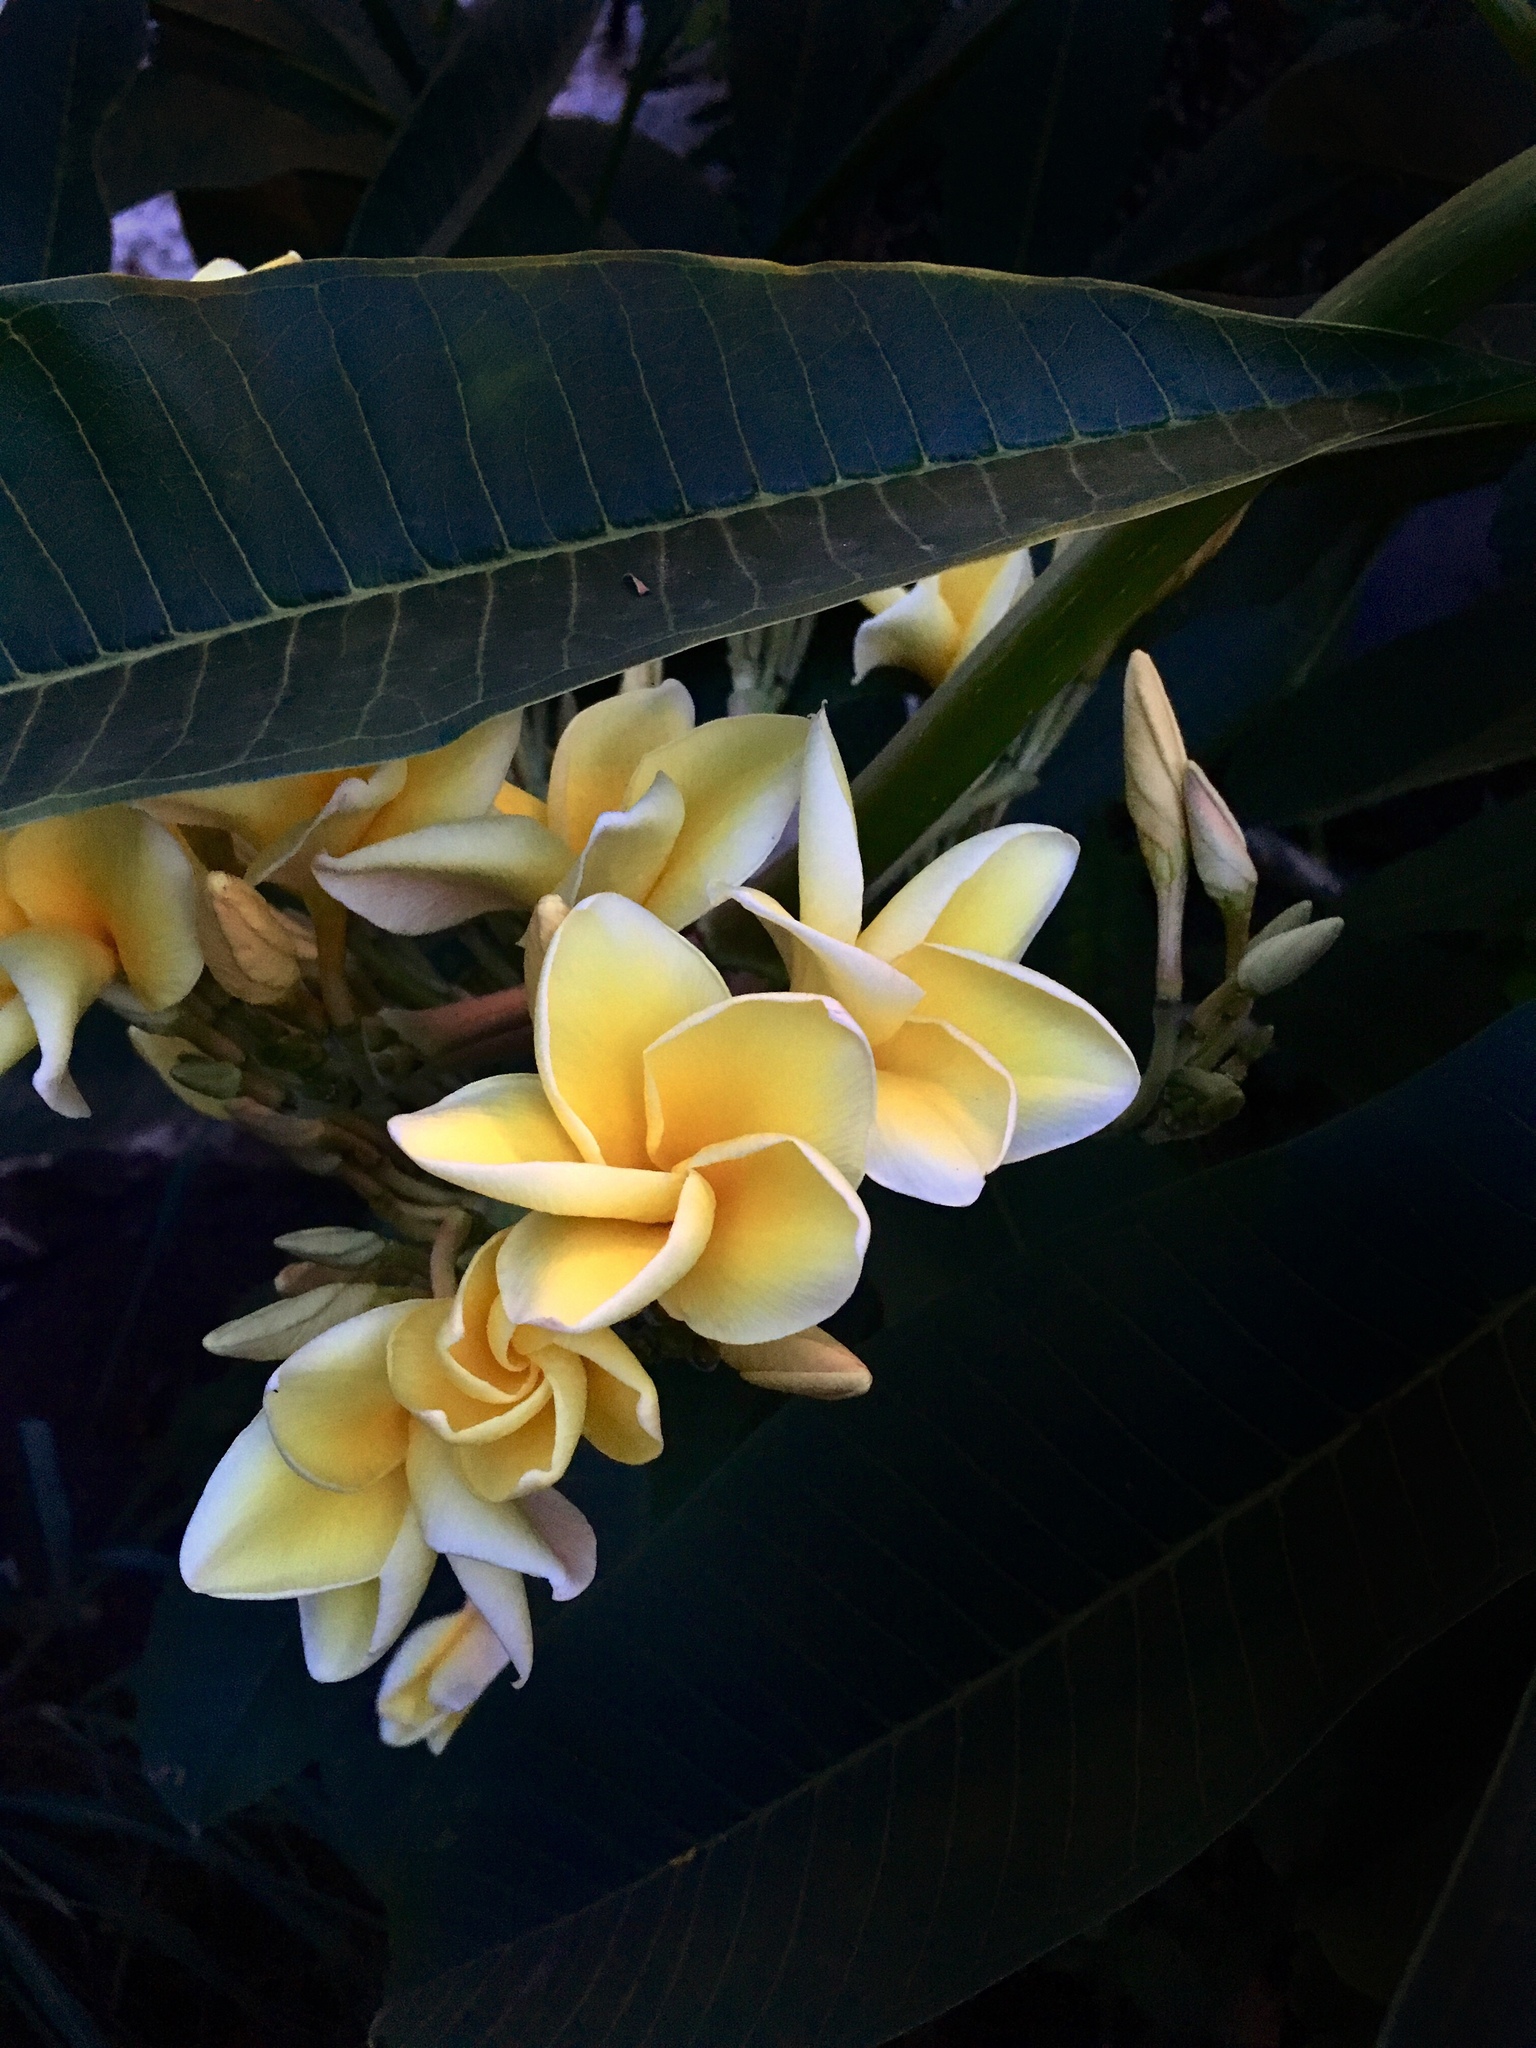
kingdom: Plantae
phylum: Tracheophyta
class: Magnoliopsida
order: Gentianales
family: Apocynaceae
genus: Plumeria
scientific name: Plumeria rubra
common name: Pagoda-tree
